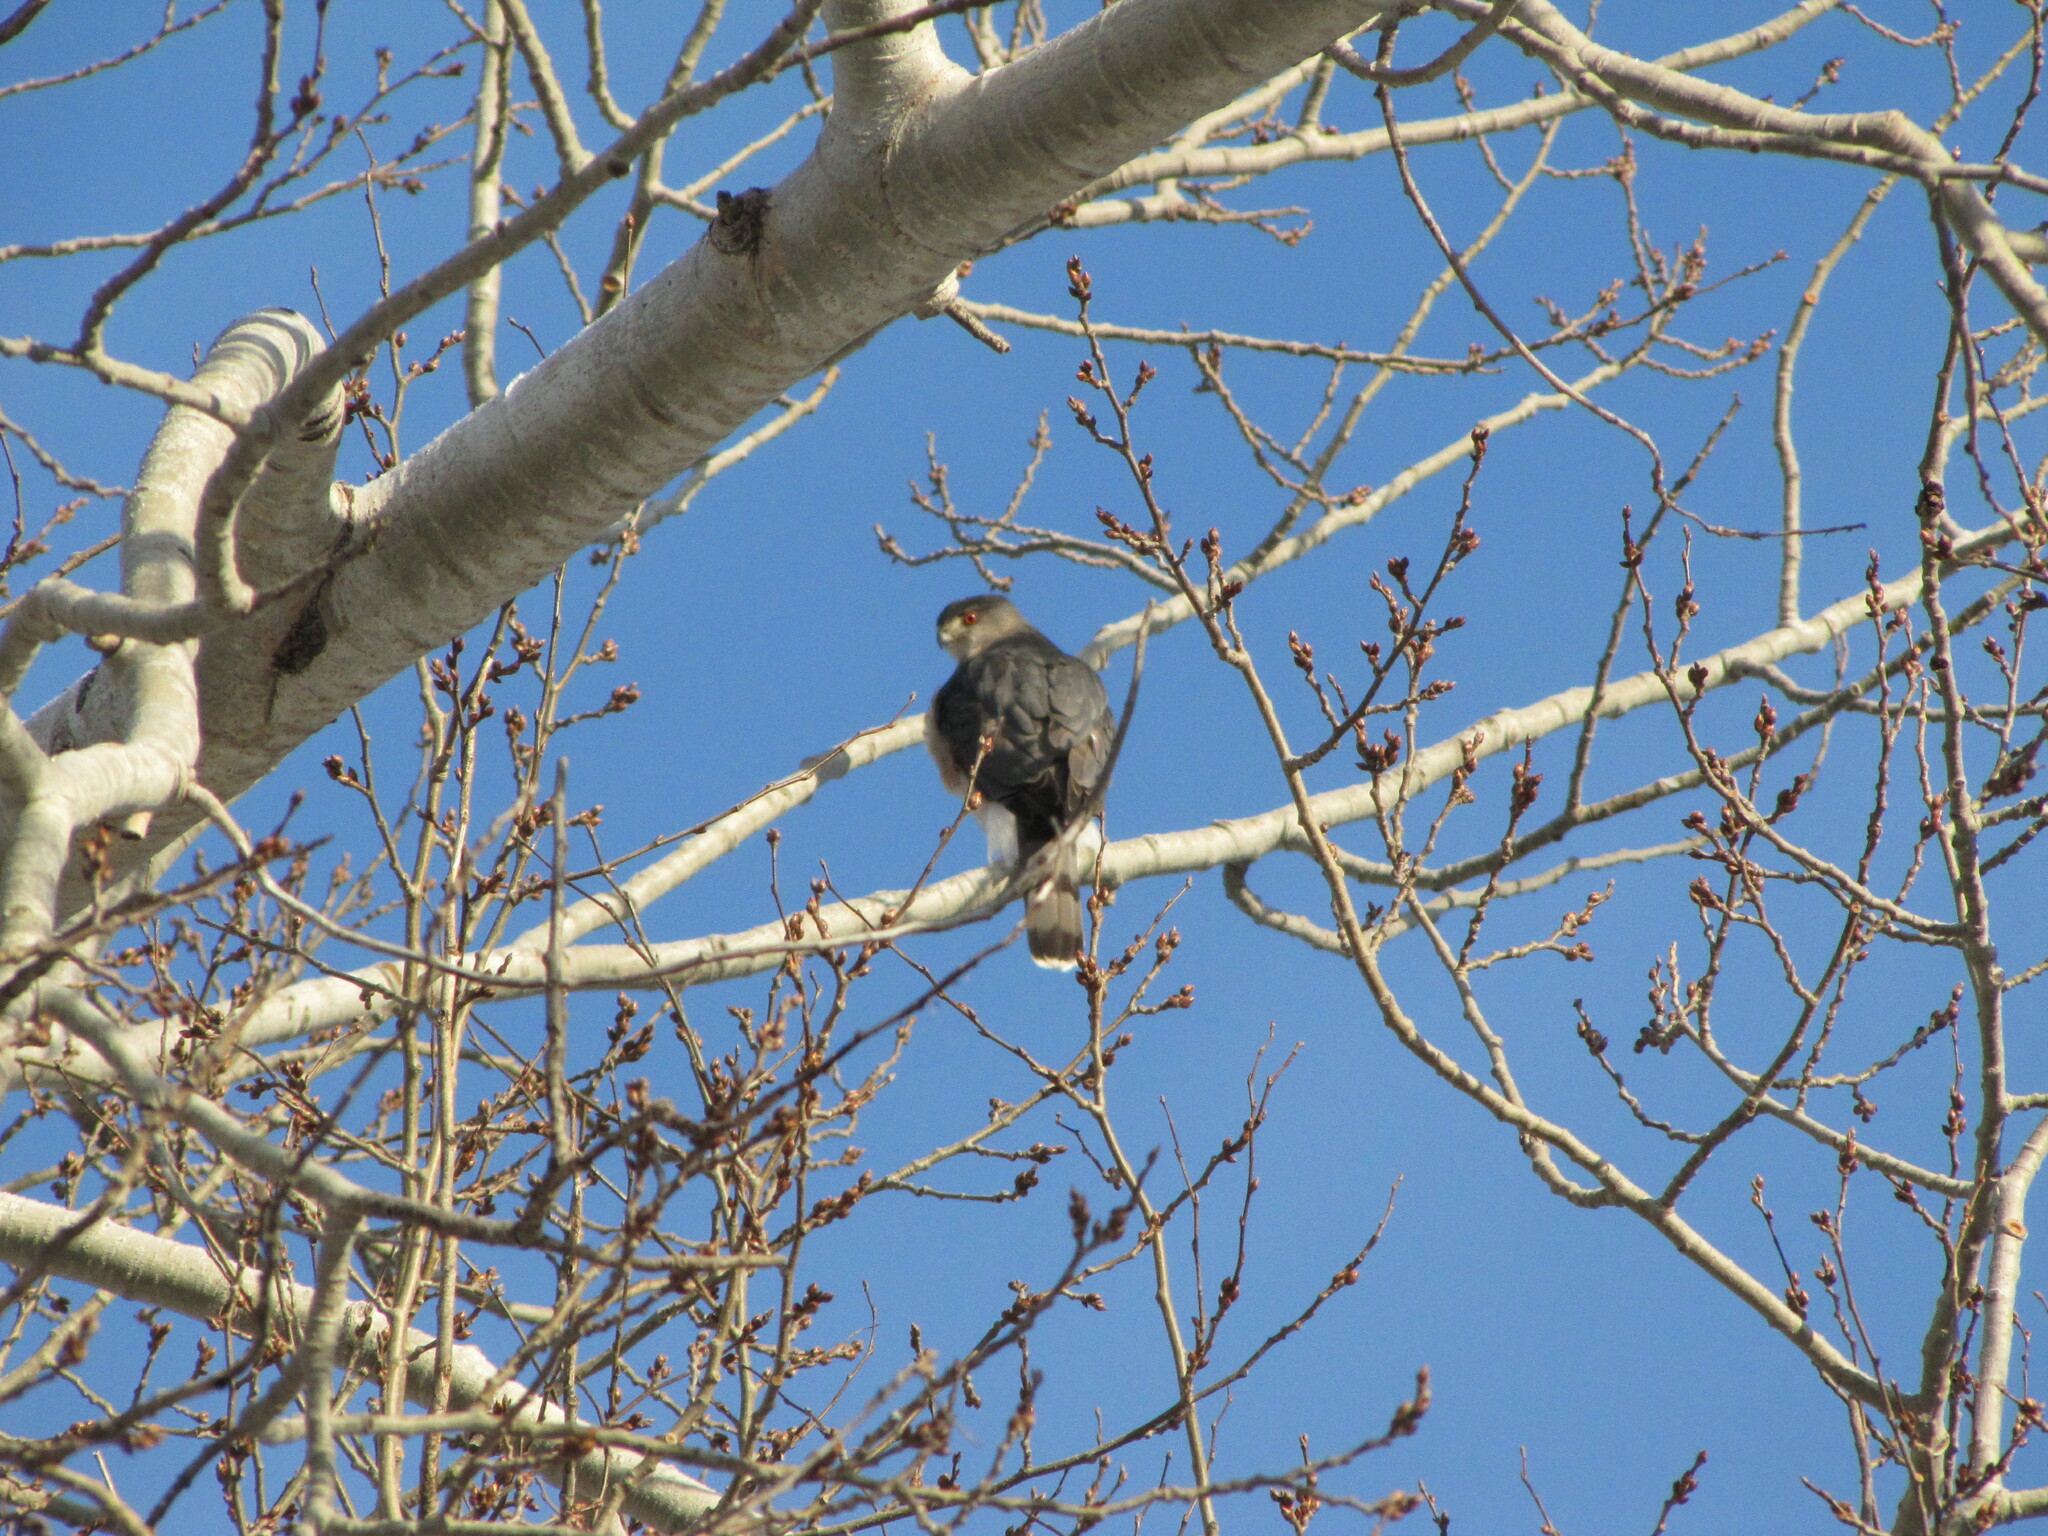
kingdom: Animalia
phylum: Chordata
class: Aves
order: Accipitriformes
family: Accipitridae
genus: Accipiter
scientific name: Accipiter cooperii
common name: Cooper's hawk
